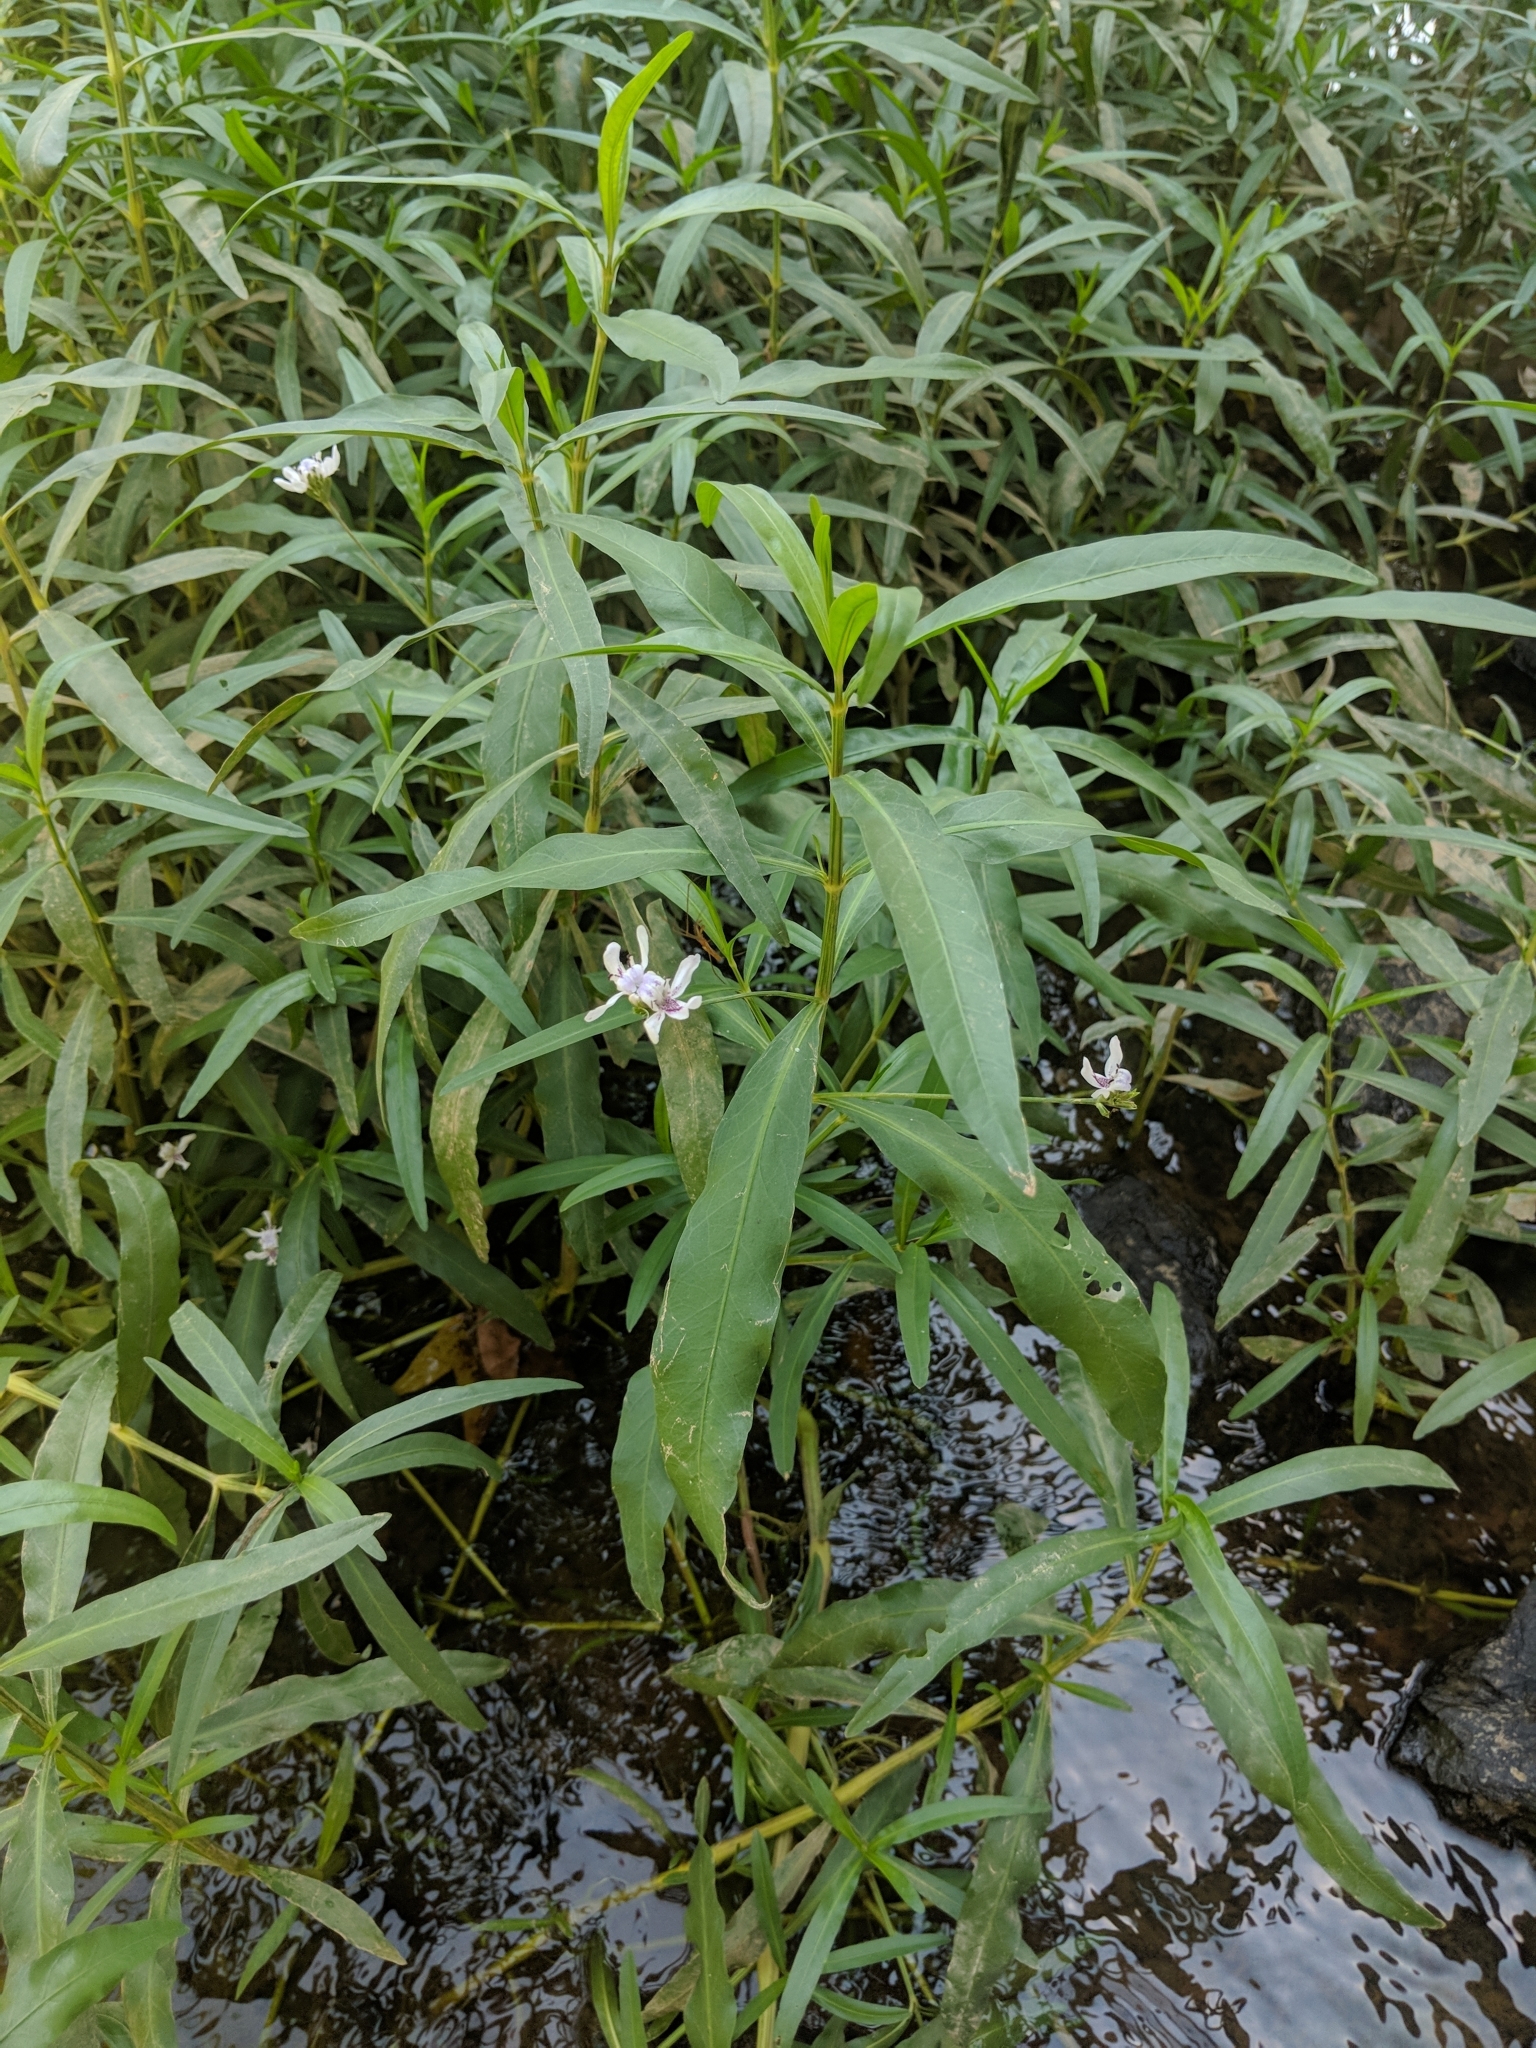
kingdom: Plantae
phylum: Tracheophyta
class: Magnoliopsida
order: Lamiales
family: Acanthaceae
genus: Dianthera
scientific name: Dianthera americana
